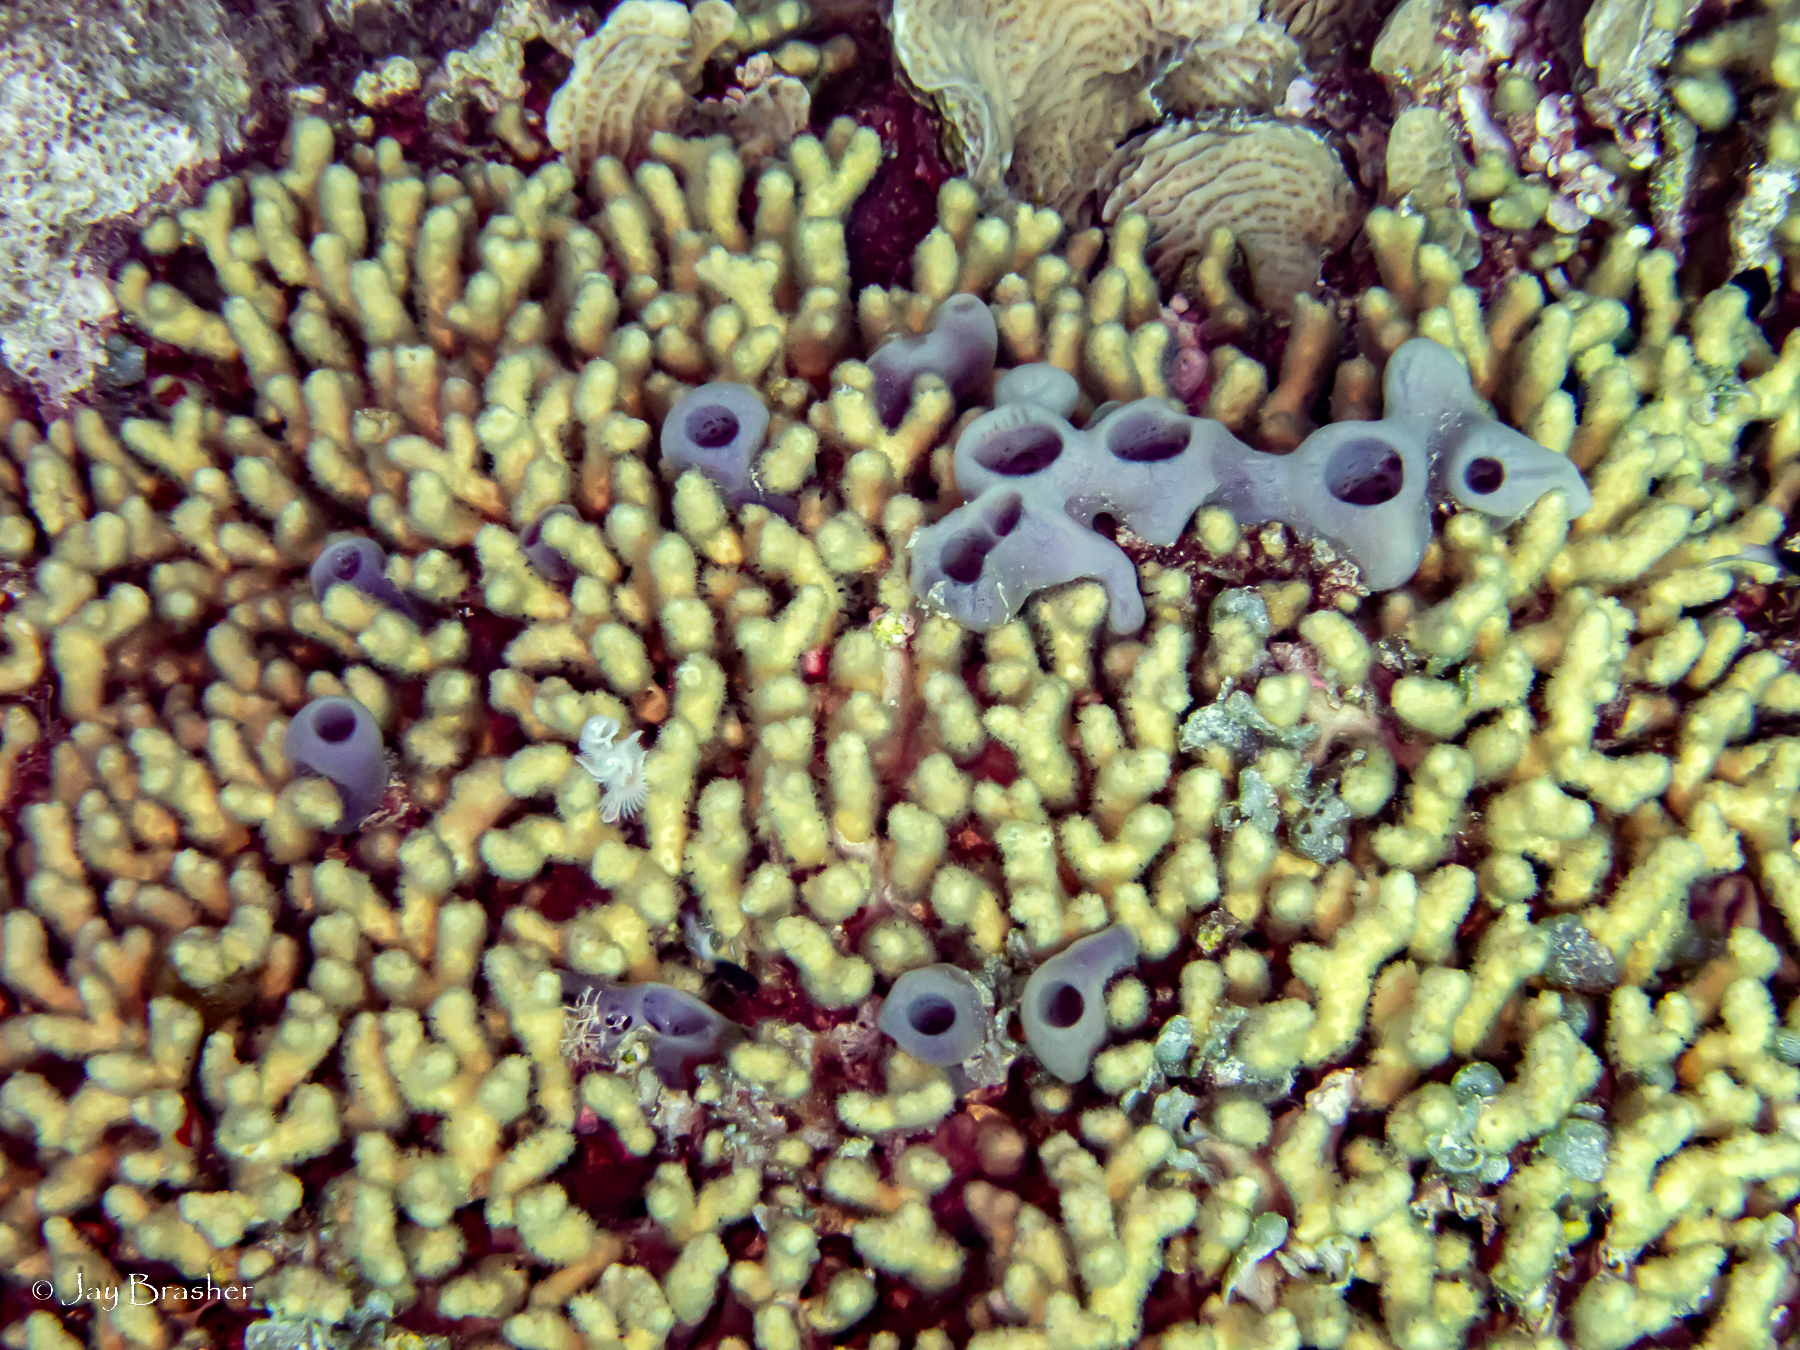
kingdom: Animalia
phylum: Porifera
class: Demospongiae
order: Haplosclerida
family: Callyspongiidae
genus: Callyspongia
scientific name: Callyspongia fallax
